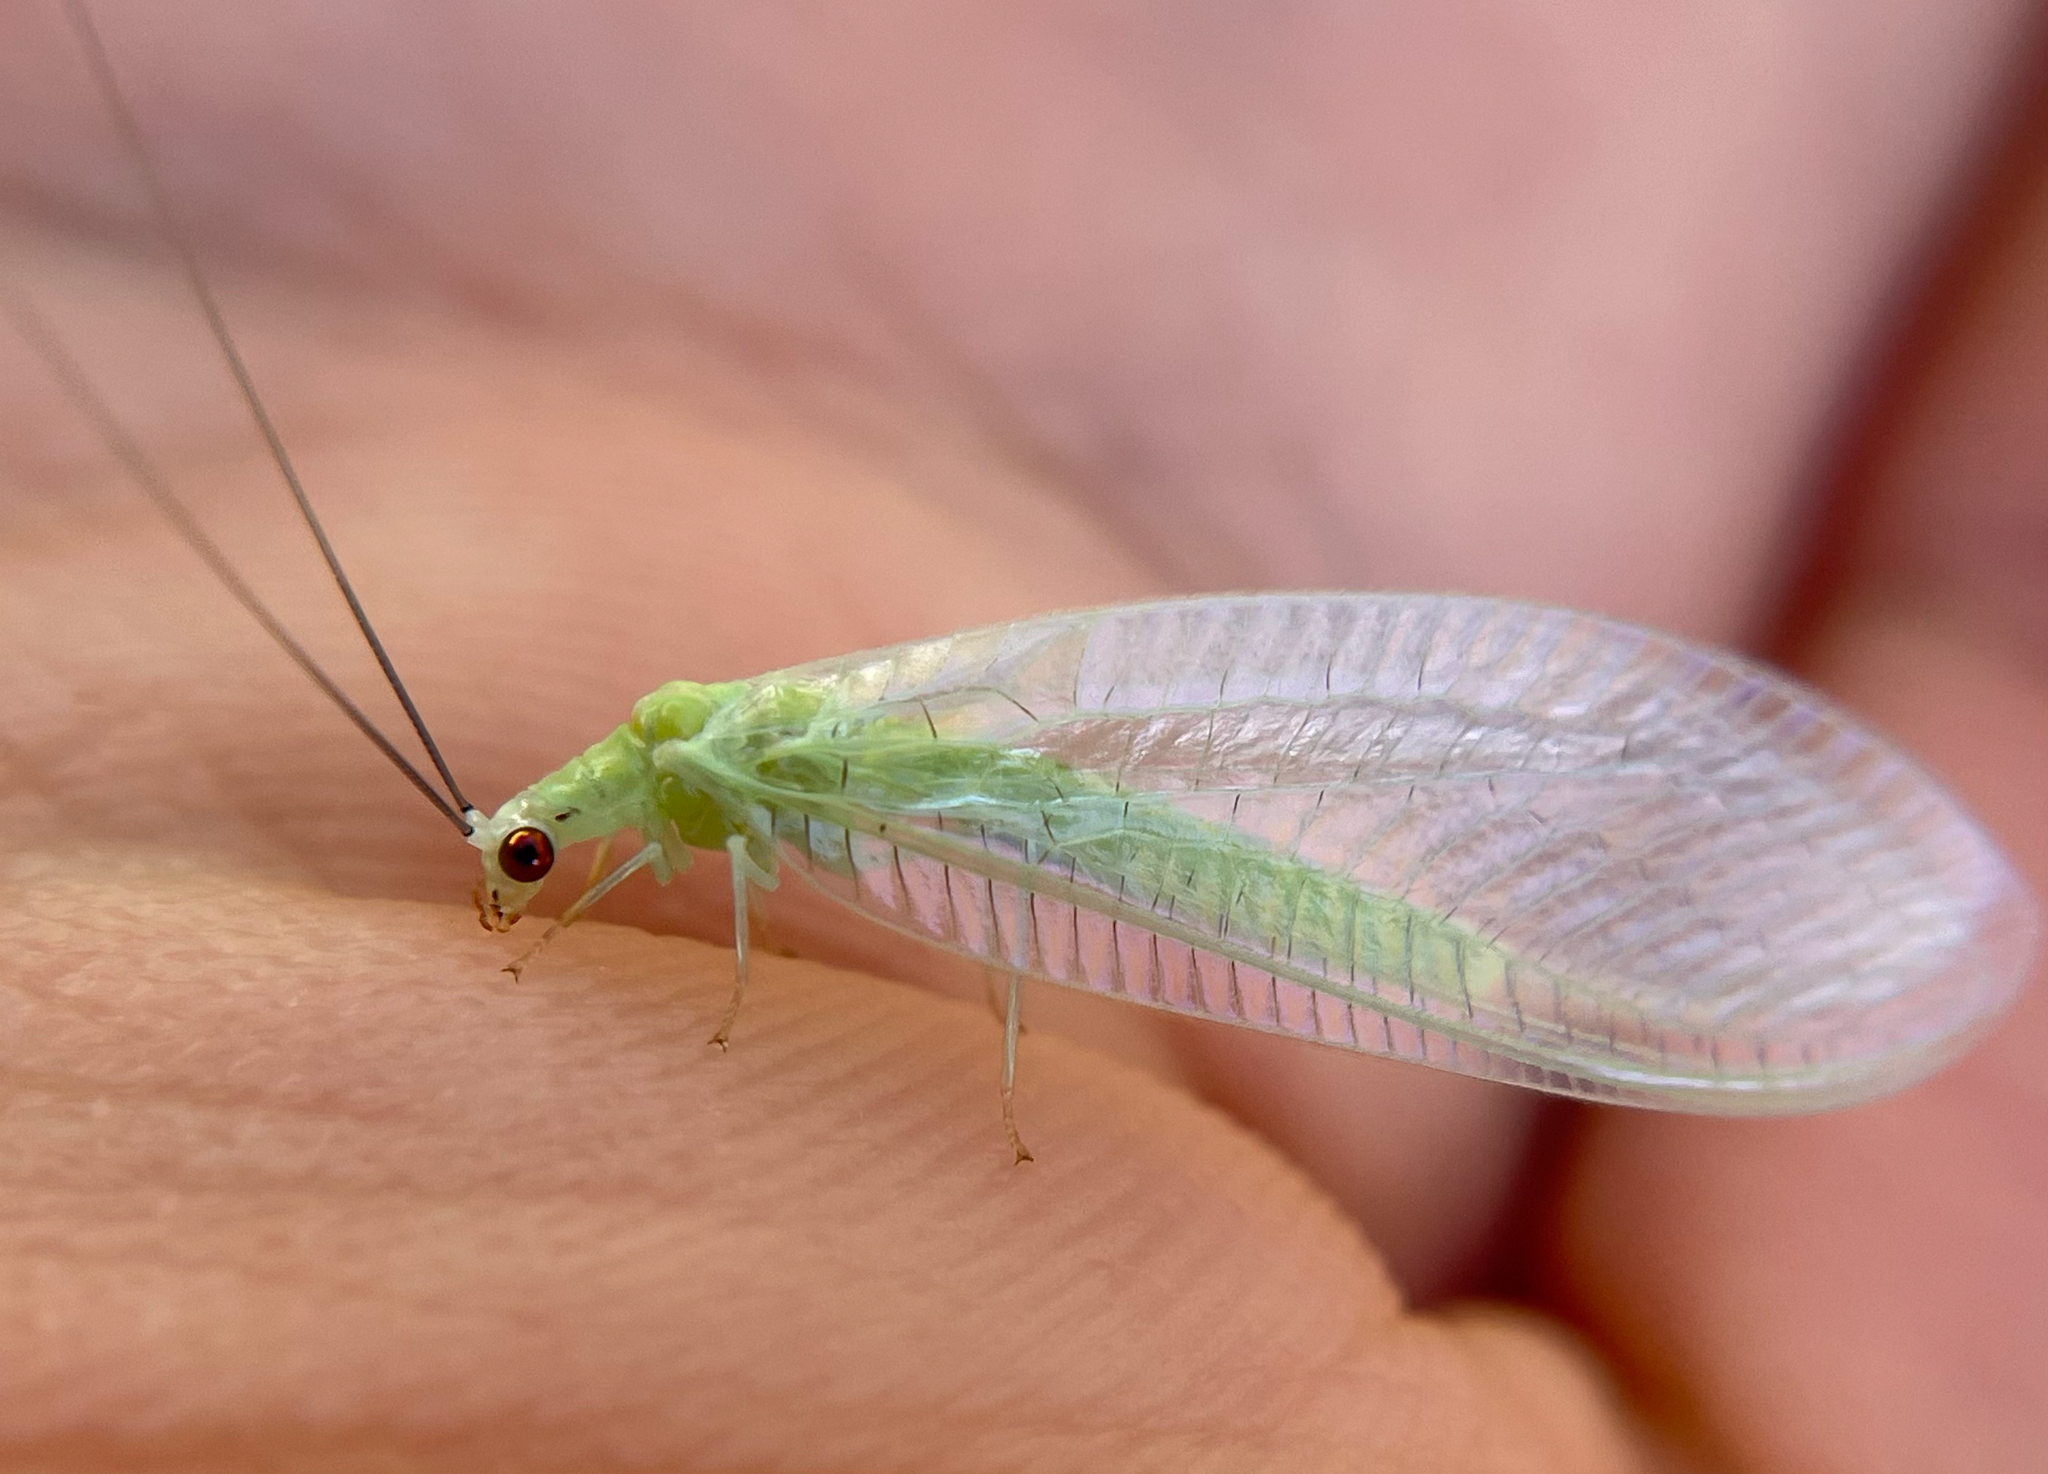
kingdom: Animalia
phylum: Arthropoda
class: Insecta
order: Neuroptera
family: Chrysopidae
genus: Chrysopa
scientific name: Chrysopa nigricornis
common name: Black-horned green lacewing
